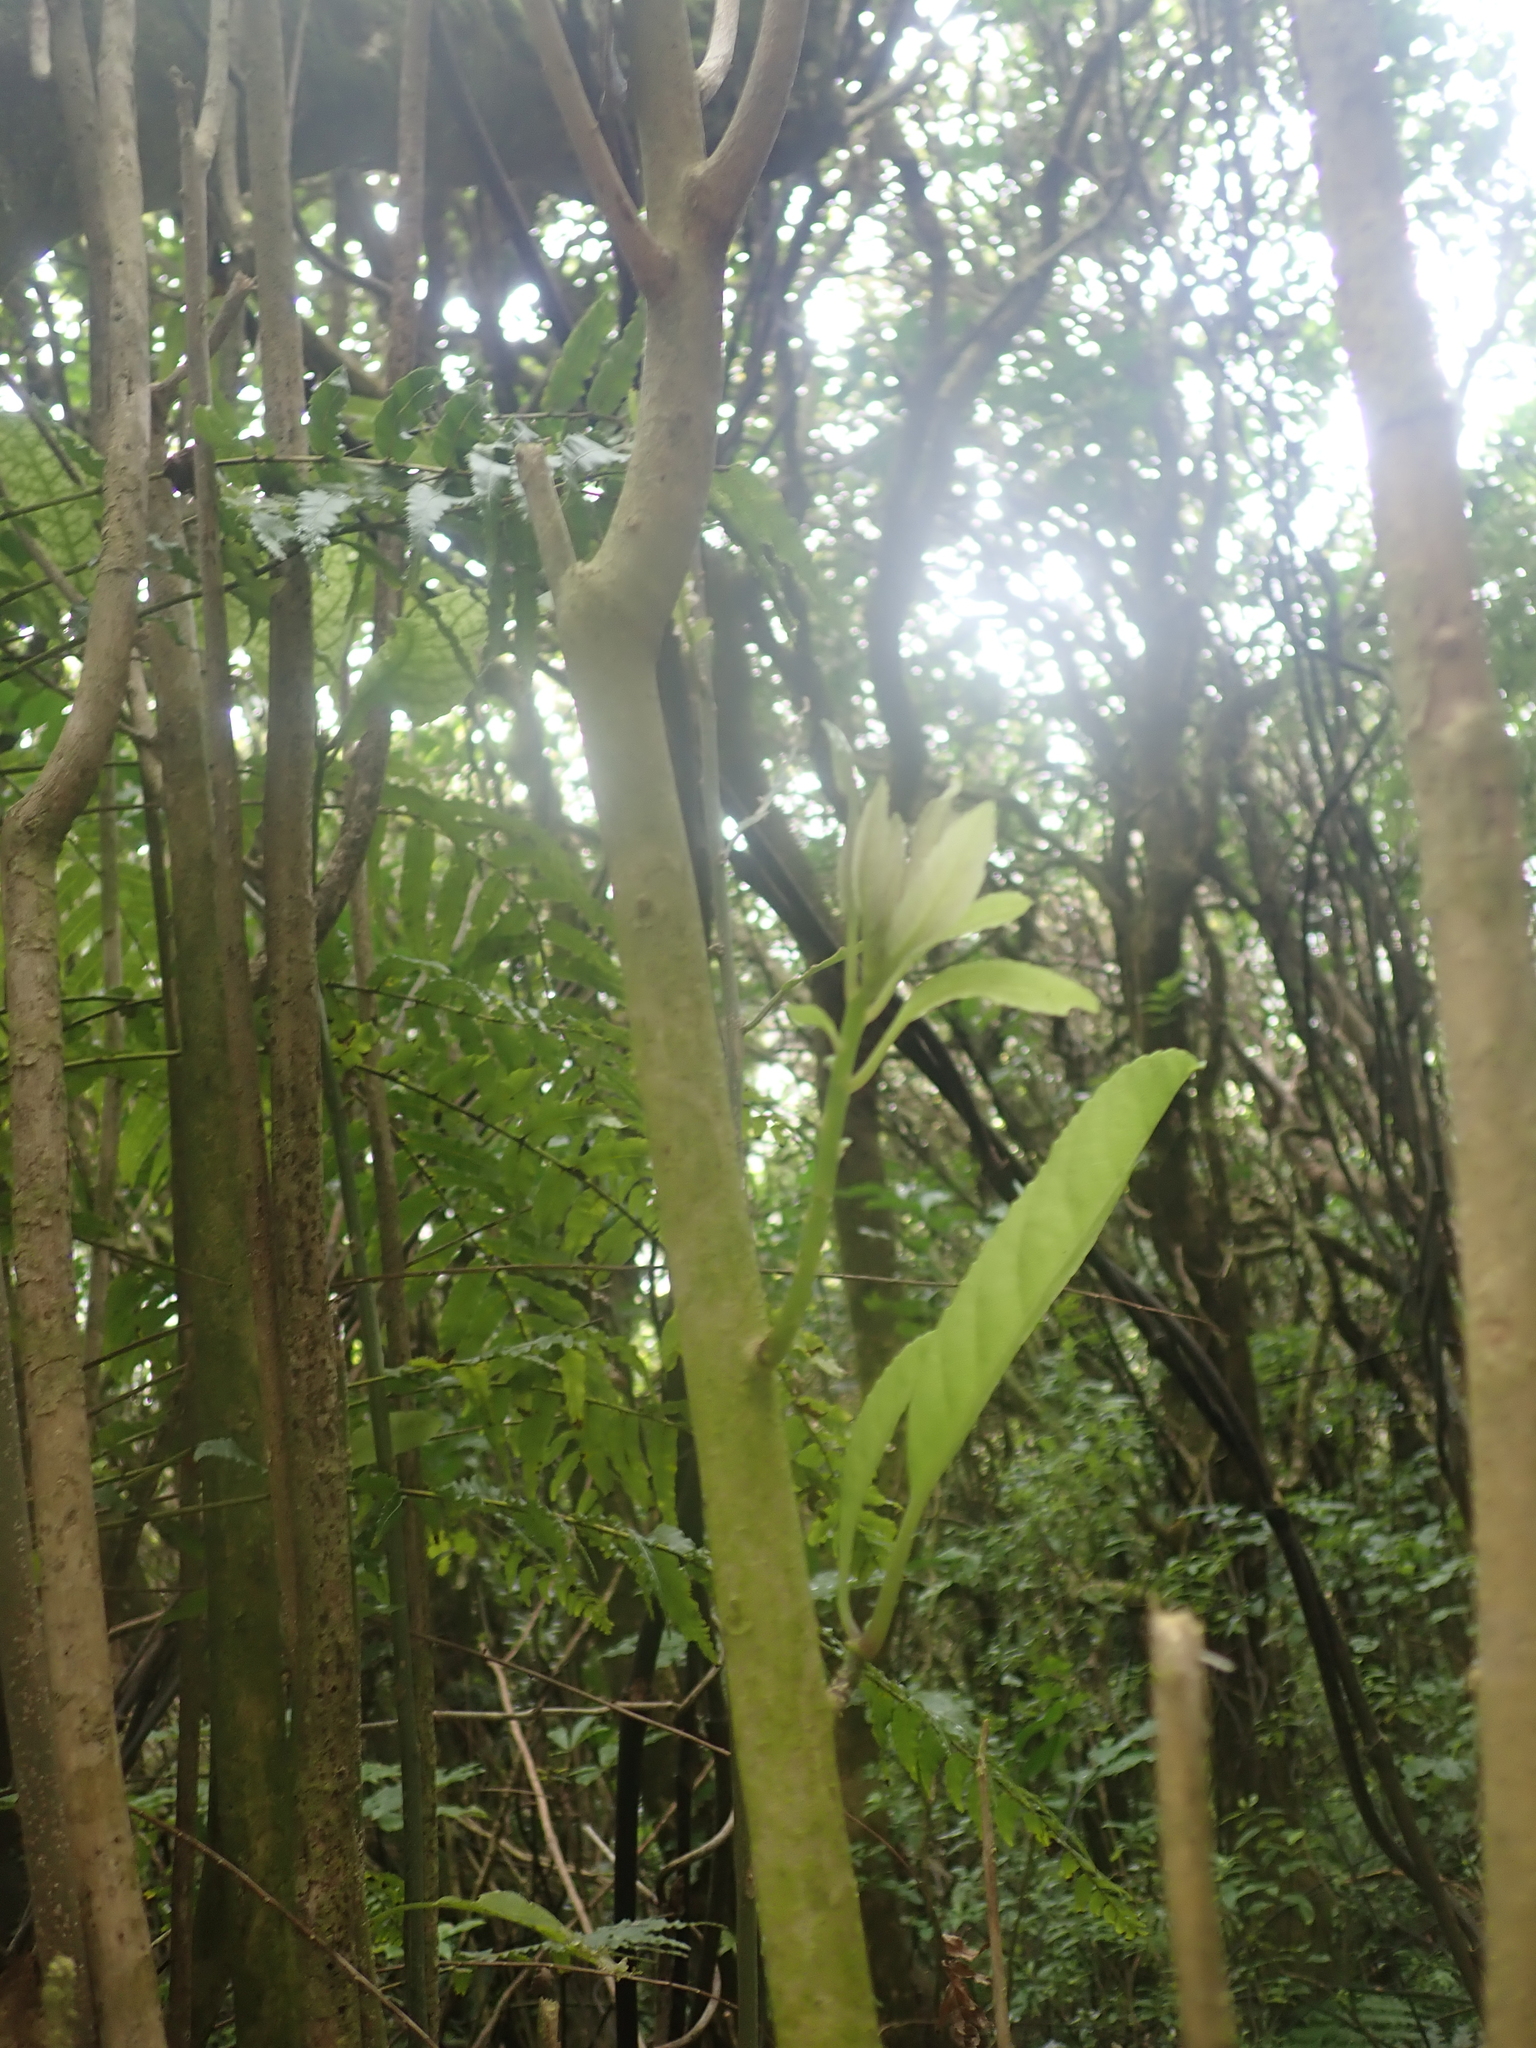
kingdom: Plantae
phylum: Tracheophyta
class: Magnoliopsida
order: Malpighiales
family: Violaceae
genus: Melicytus
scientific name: Melicytus ramiflorus
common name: Mahoe
